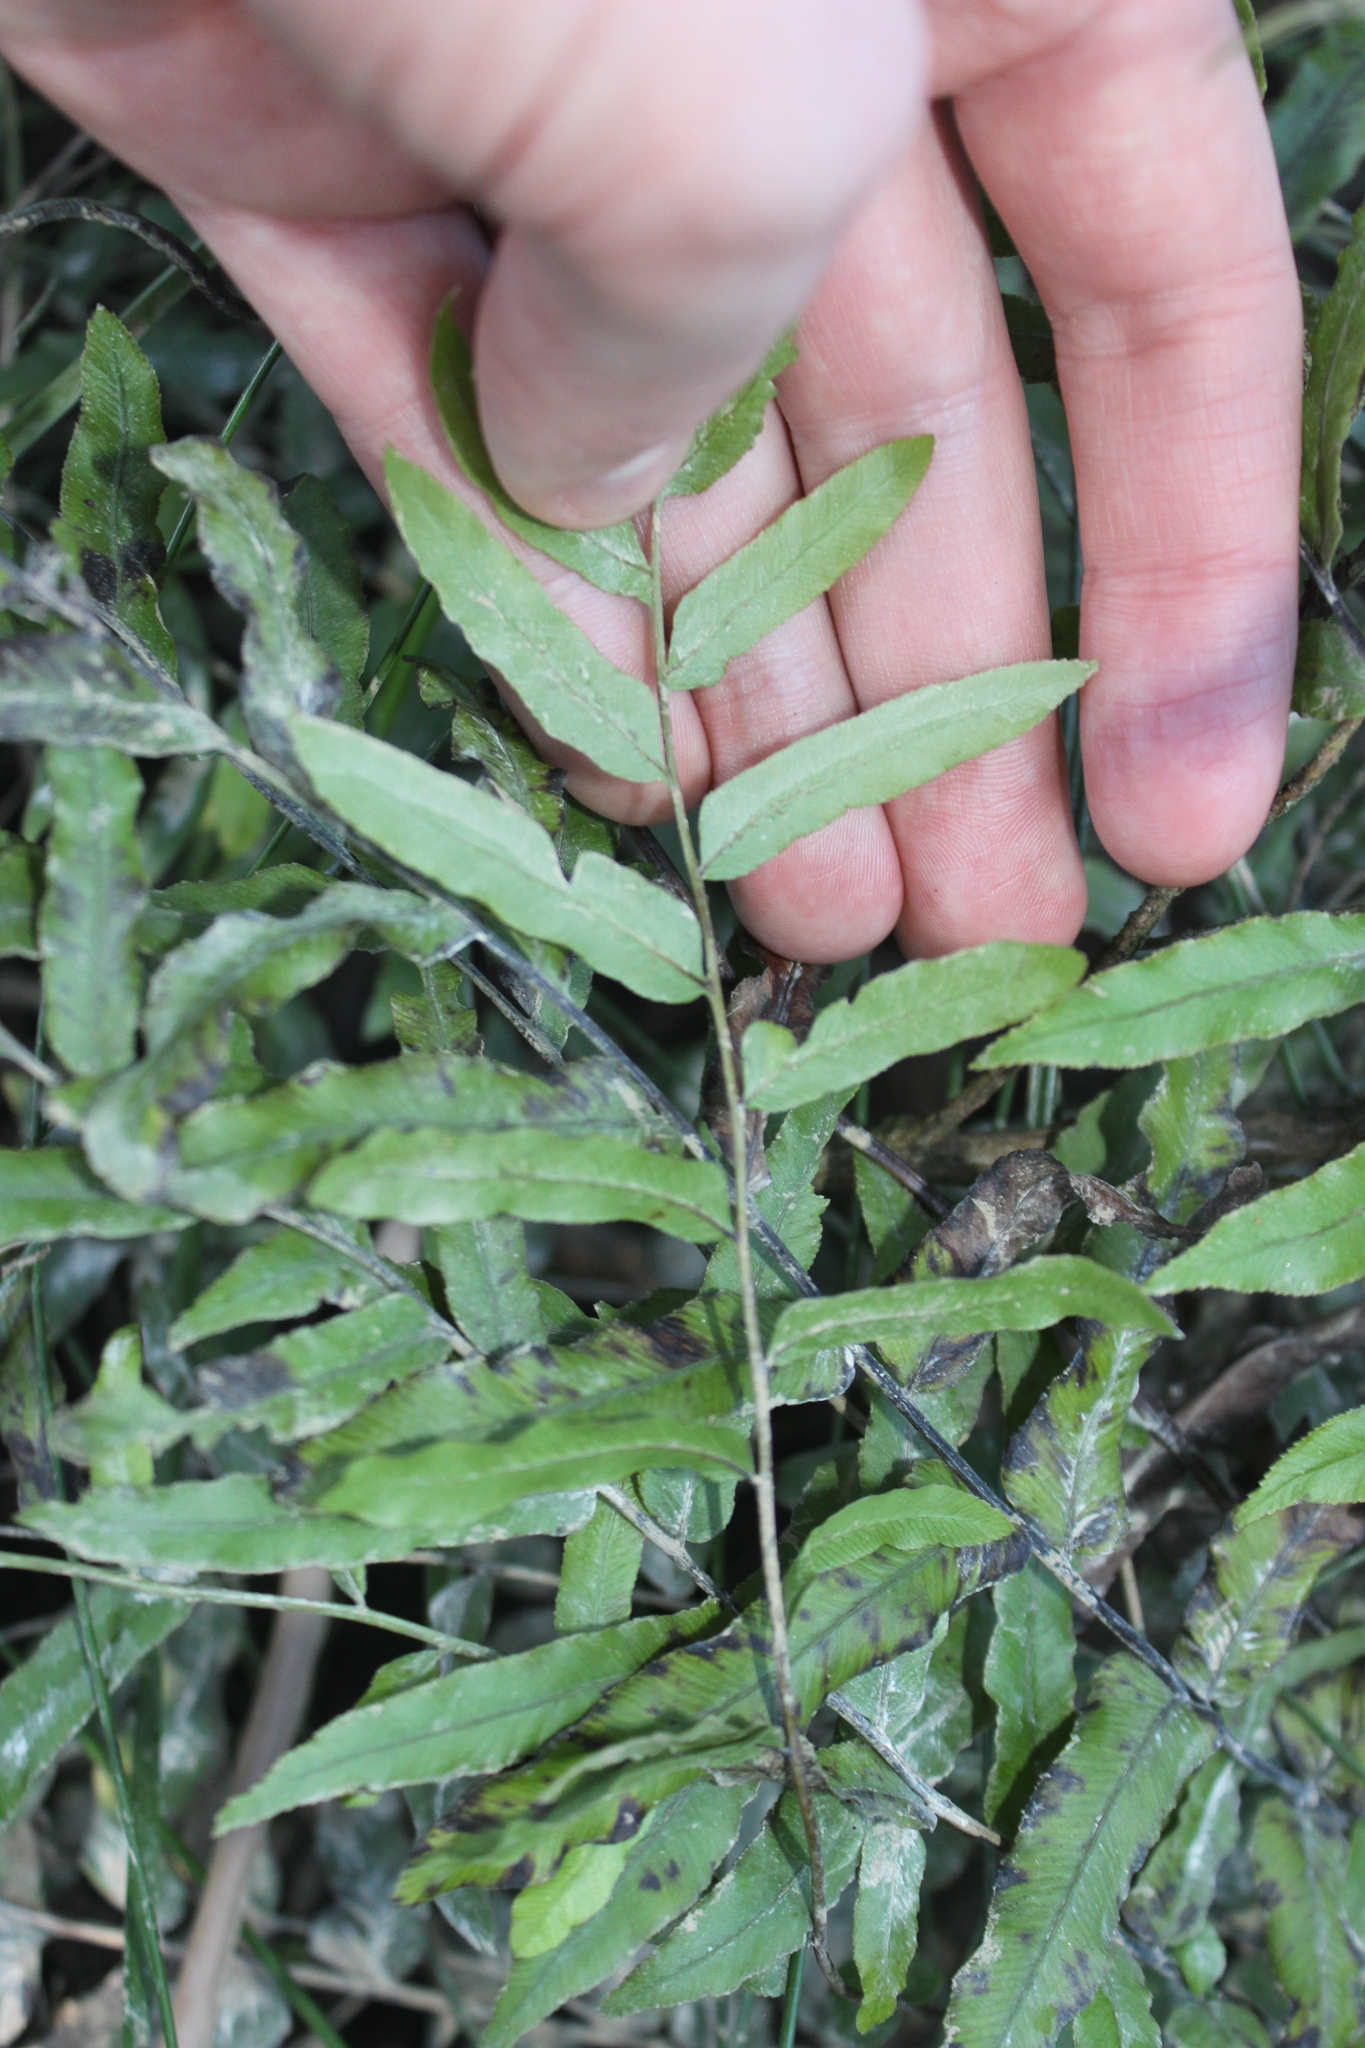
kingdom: Plantae
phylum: Tracheophyta
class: Polypodiopsida
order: Polypodiales
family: Blechnaceae
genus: Parablechnum
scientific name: Parablechnum minus
